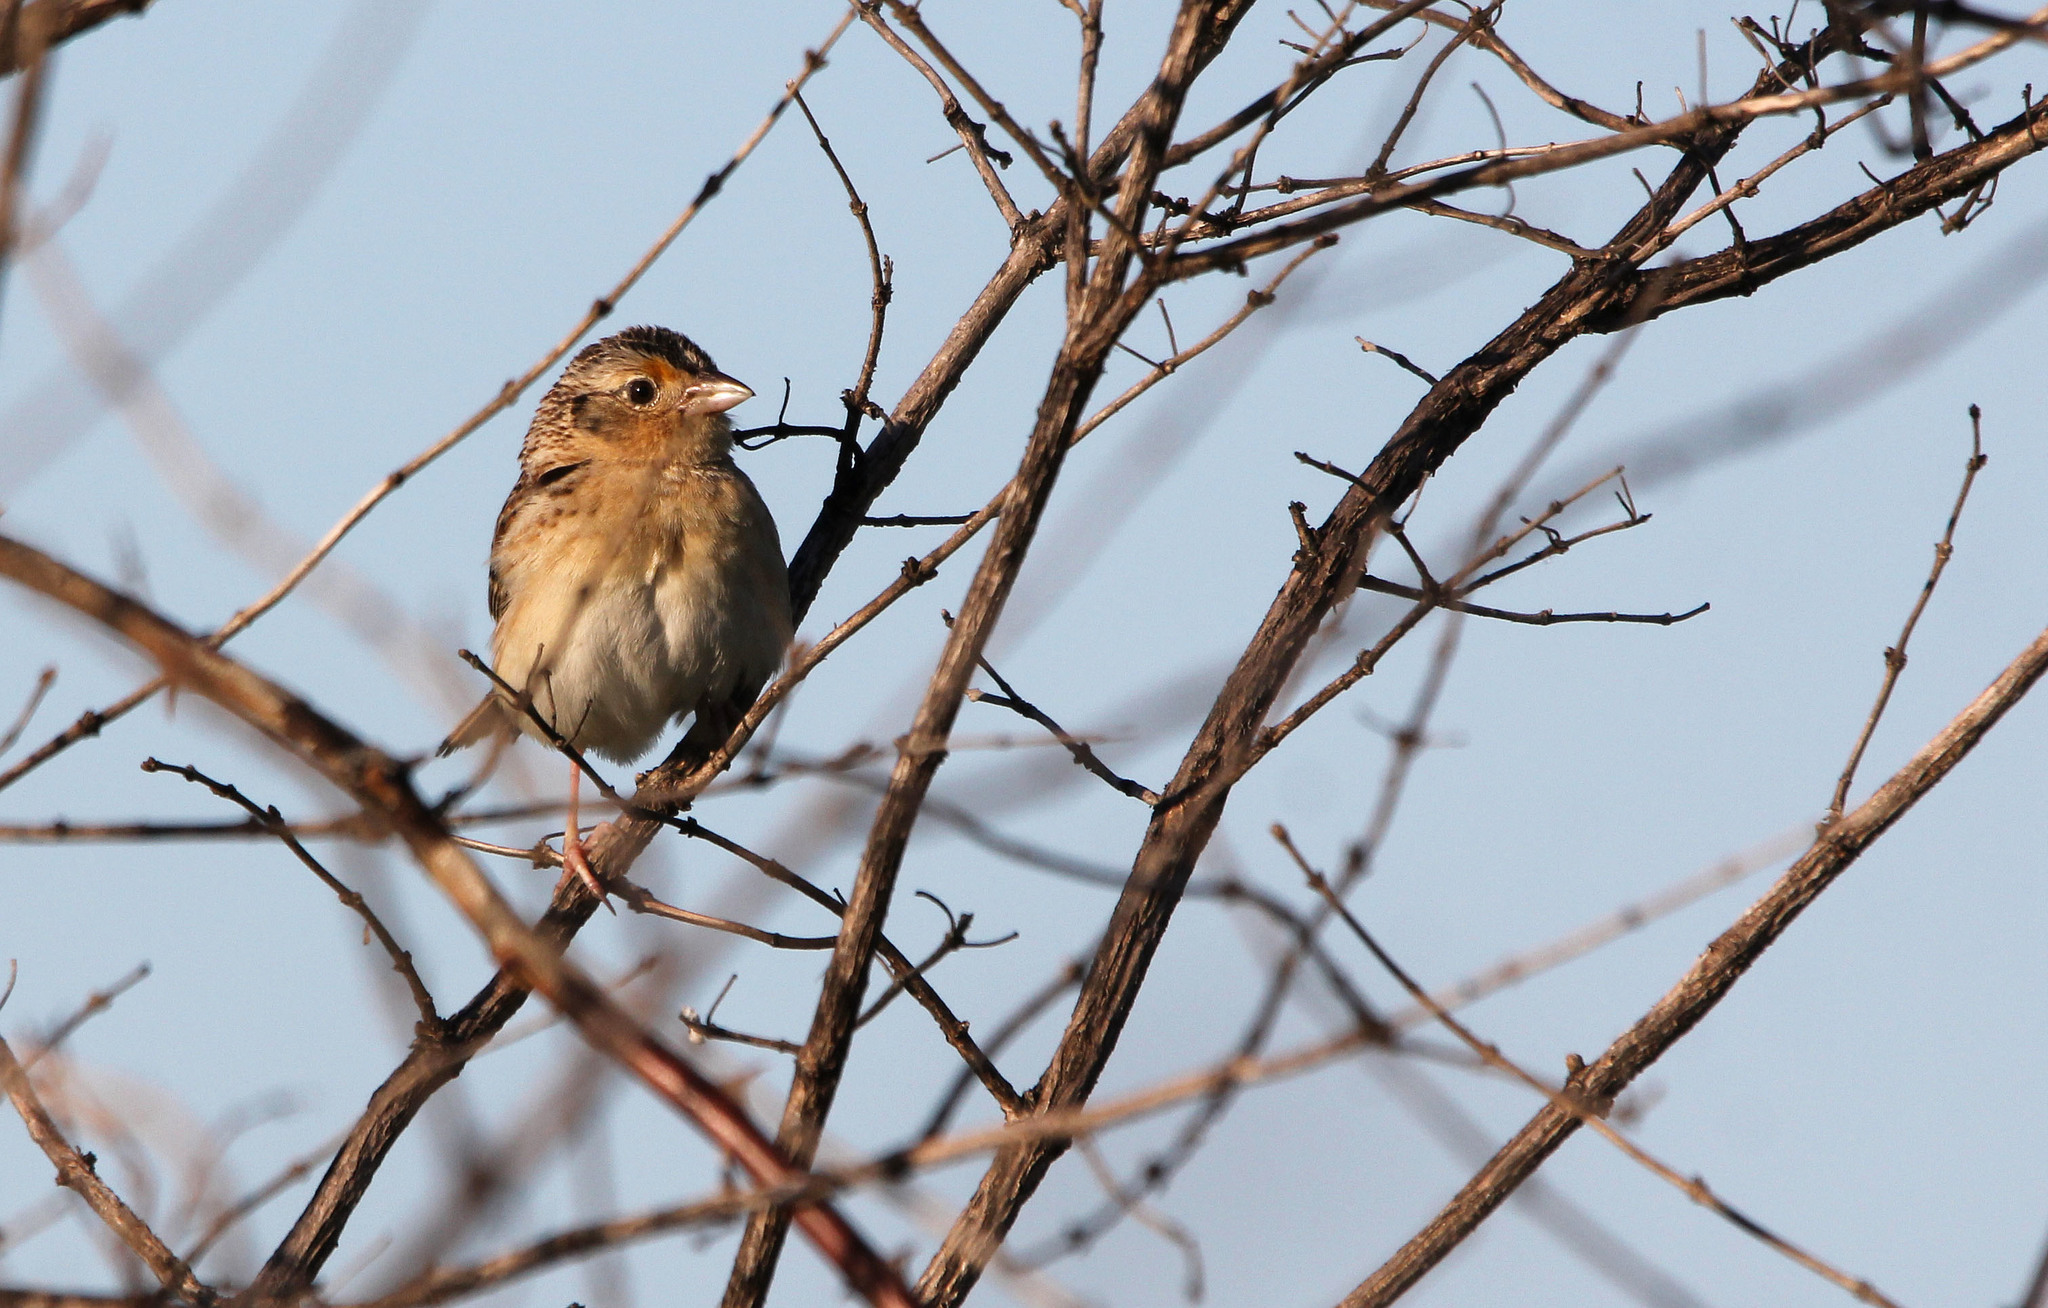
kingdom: Animalia
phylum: Chordata
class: Aves
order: Passeriformes
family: Passerellidae
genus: Ammodramus
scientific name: Ammodramus savannarum
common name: Grasshopper sparrow
